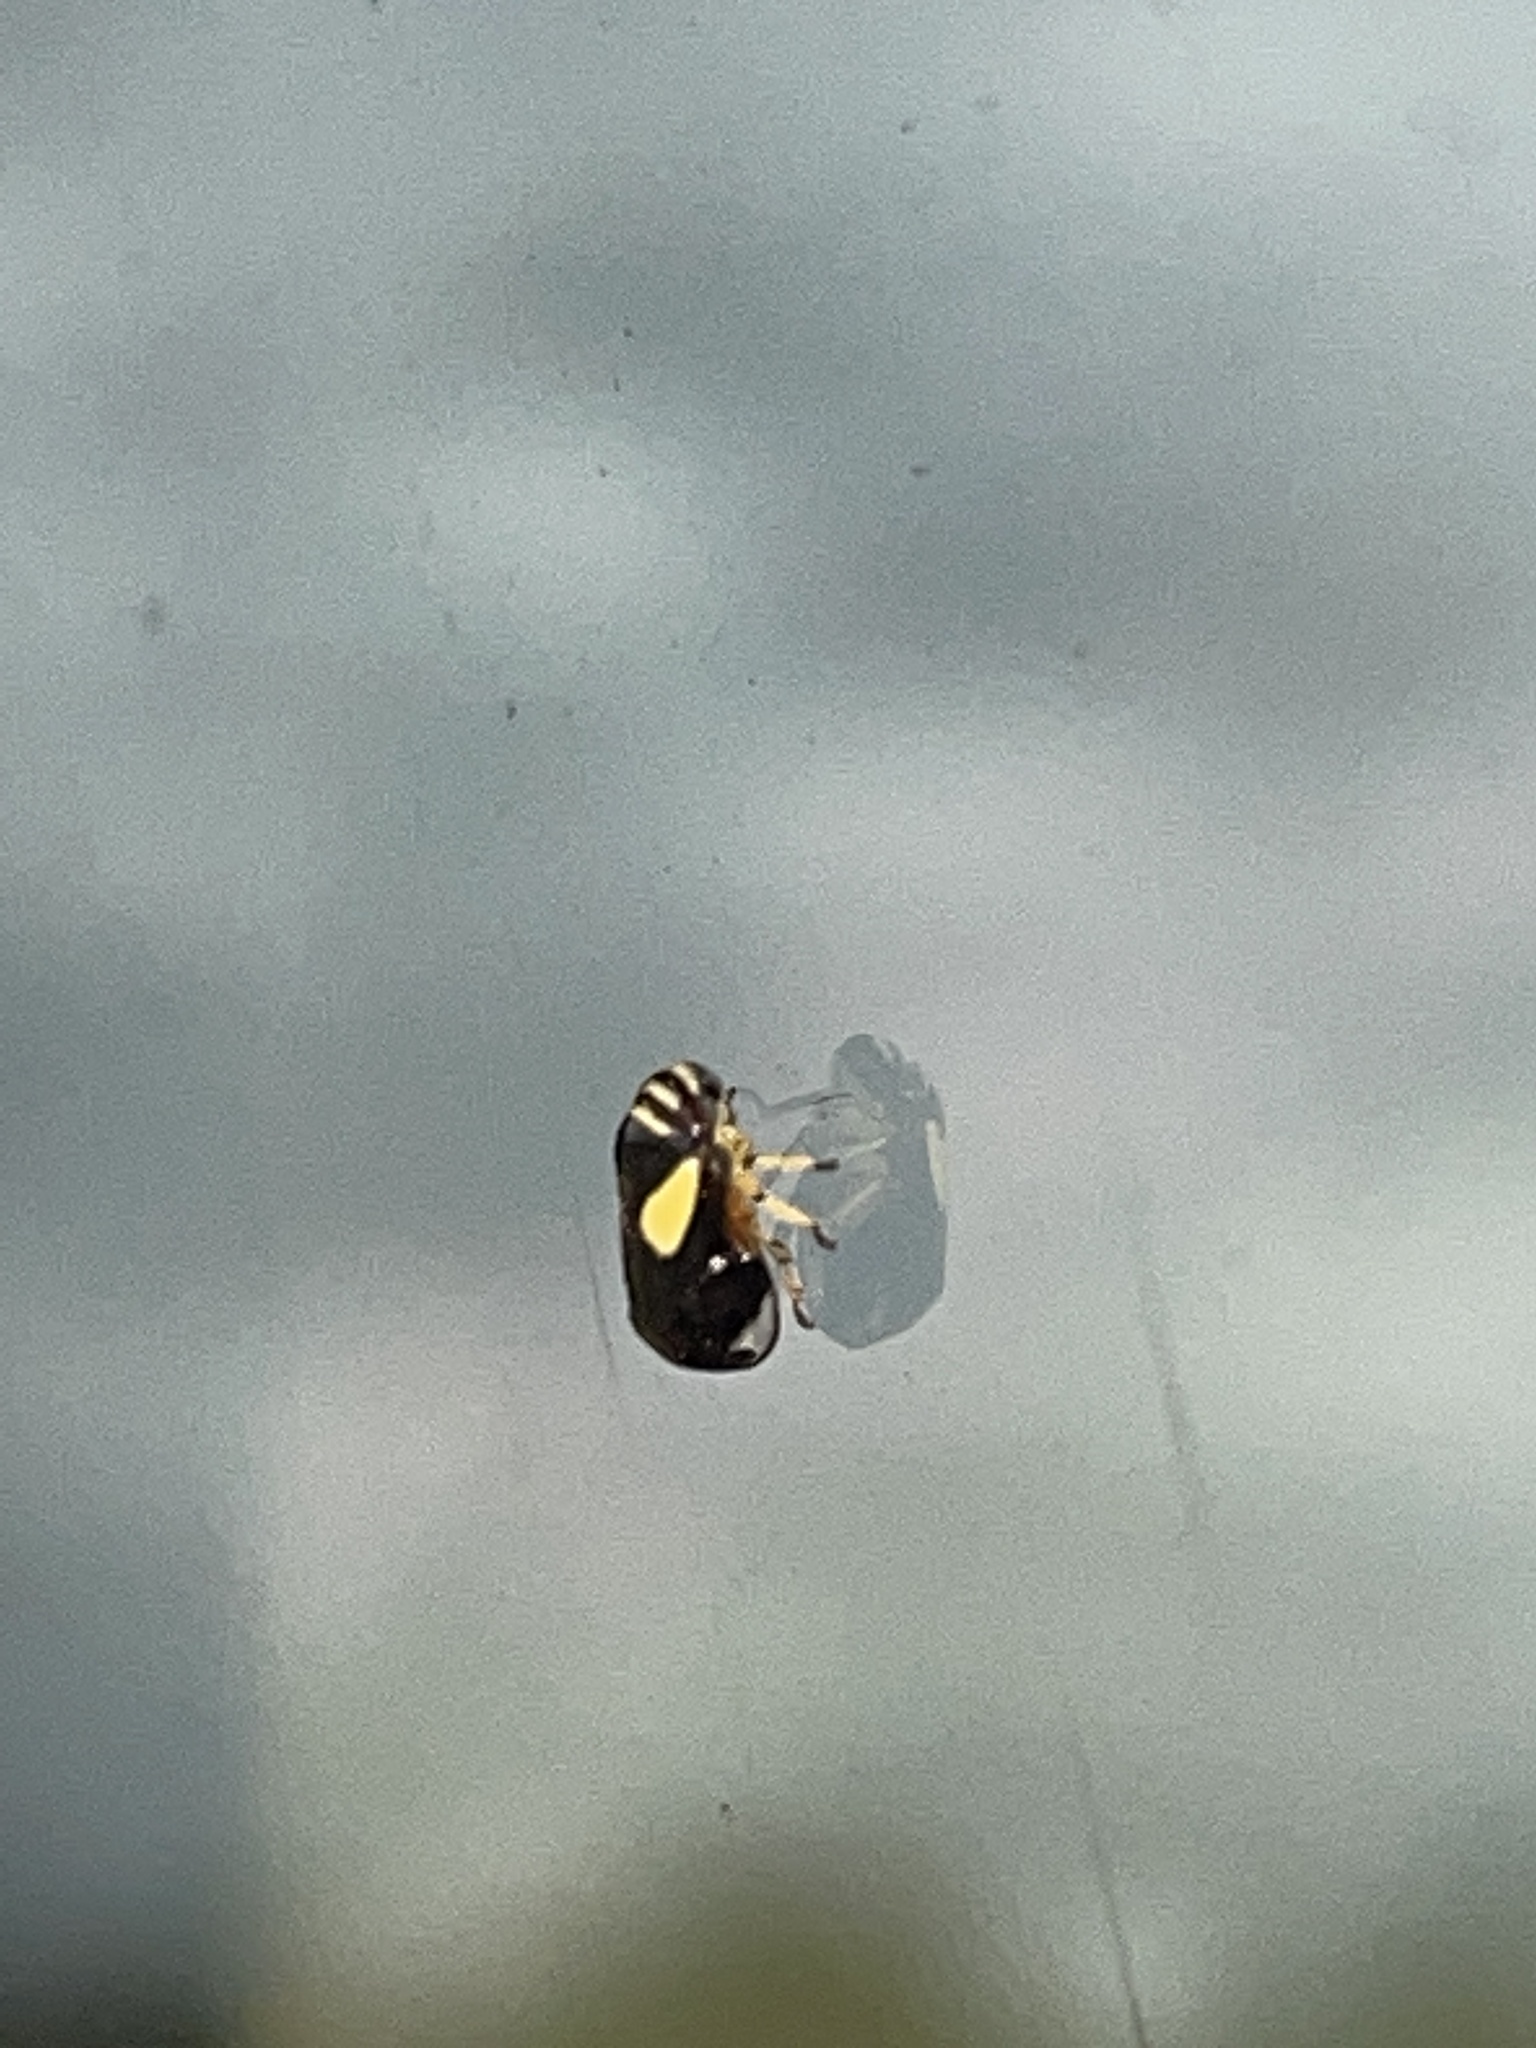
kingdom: Animalia
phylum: Arthropoda
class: Insecta
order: Hemiptera
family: Clastopteridae
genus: Clastoptera
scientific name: Clastoptera proteus
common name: Dogwood spittlebug
